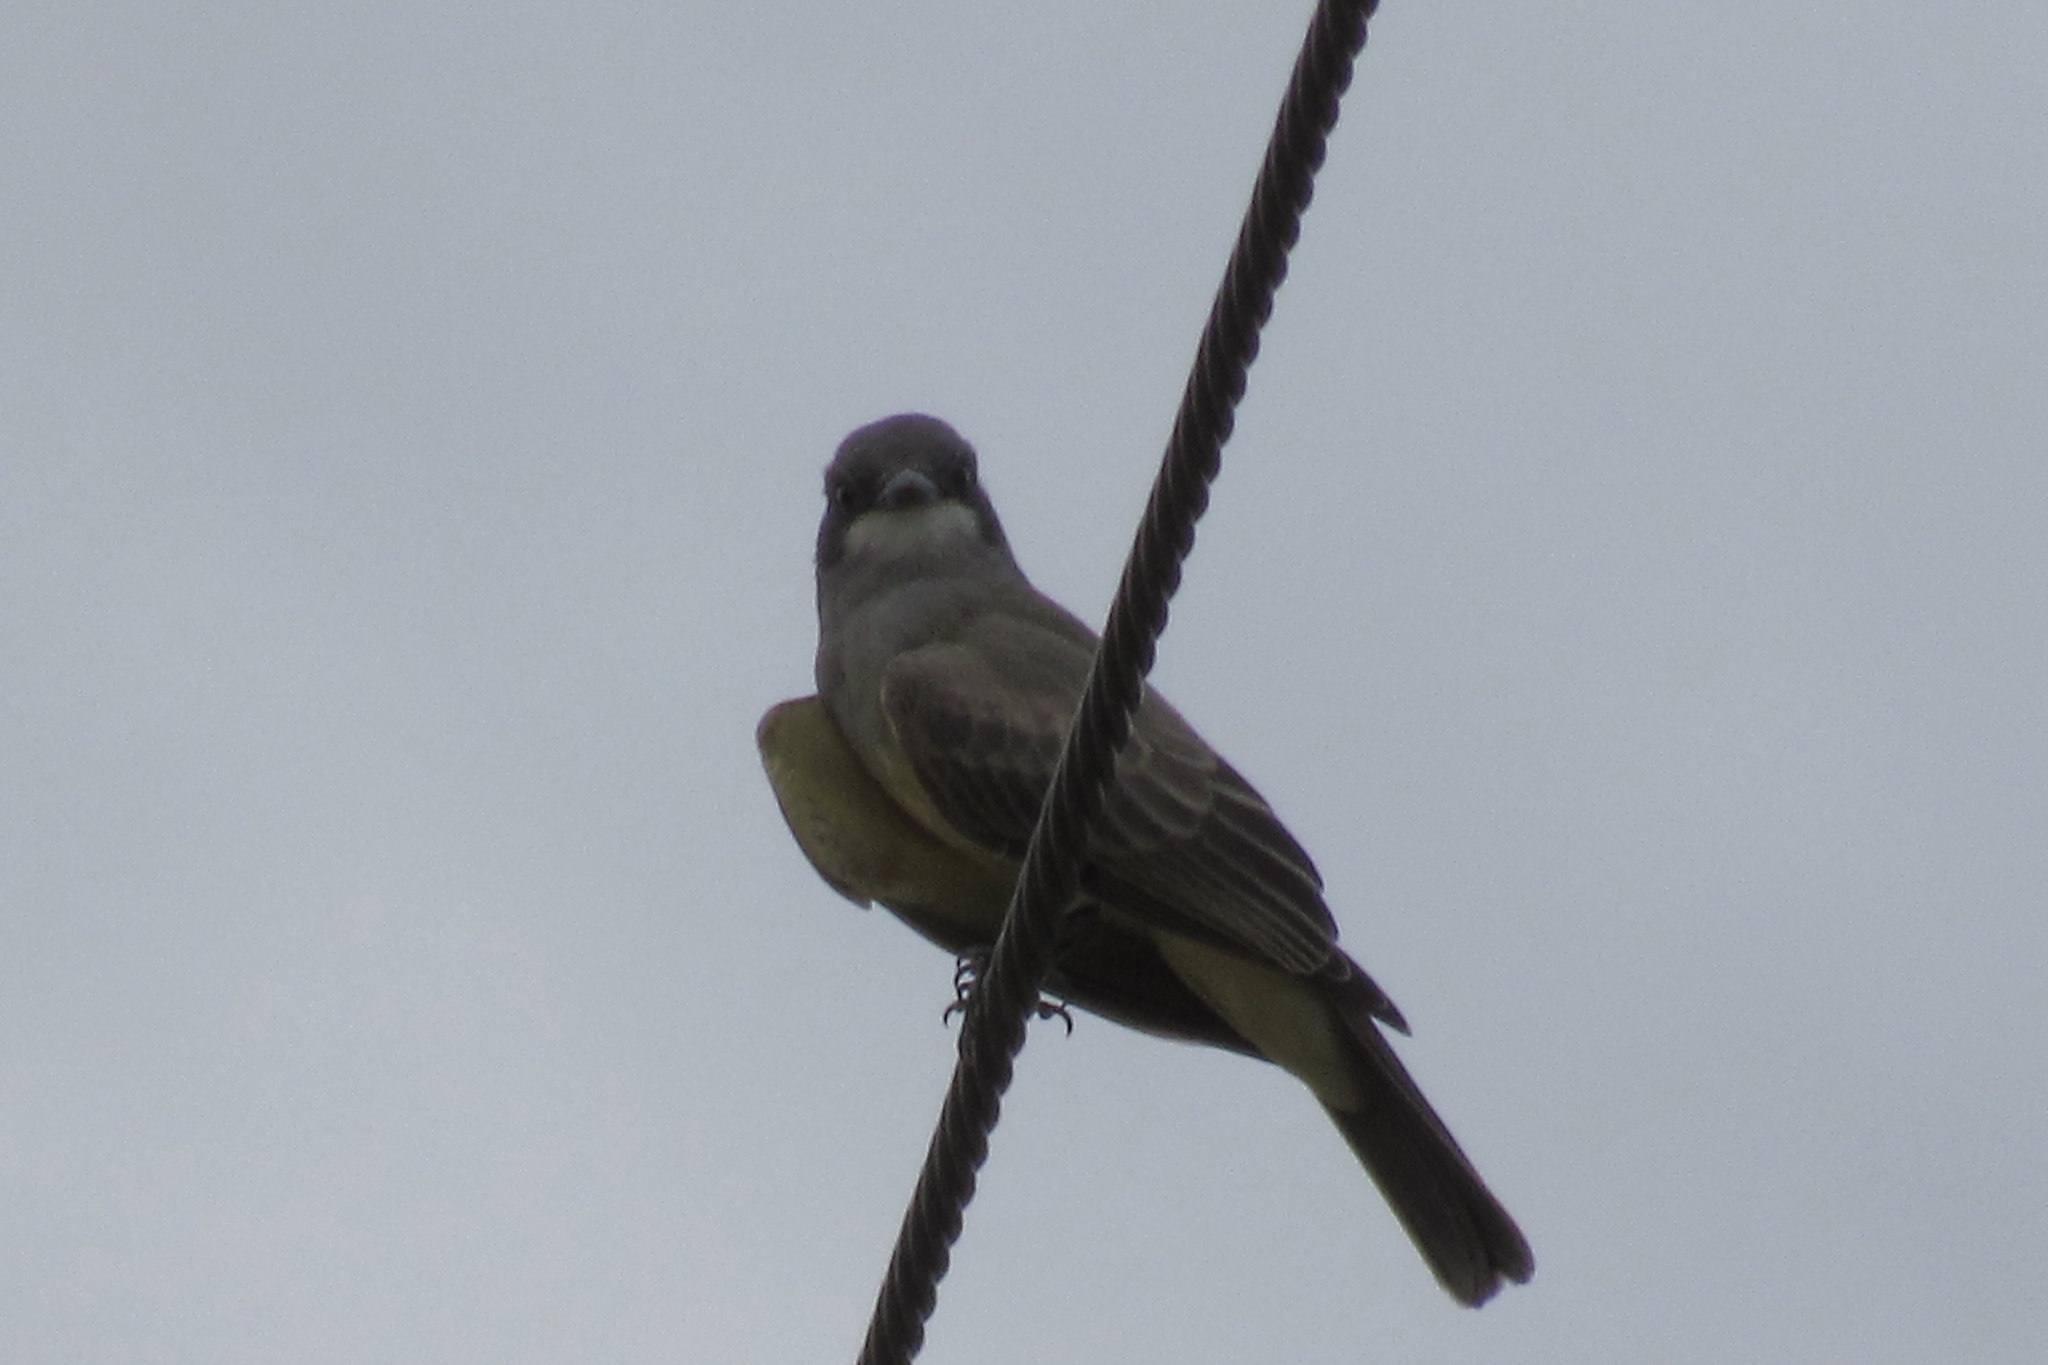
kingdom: Animalia
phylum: Chordata
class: Aves
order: Passeriformes
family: Tyrannidae
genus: Tyrannus
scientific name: Tyrannus vociferans
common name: Cassin's kingbird
